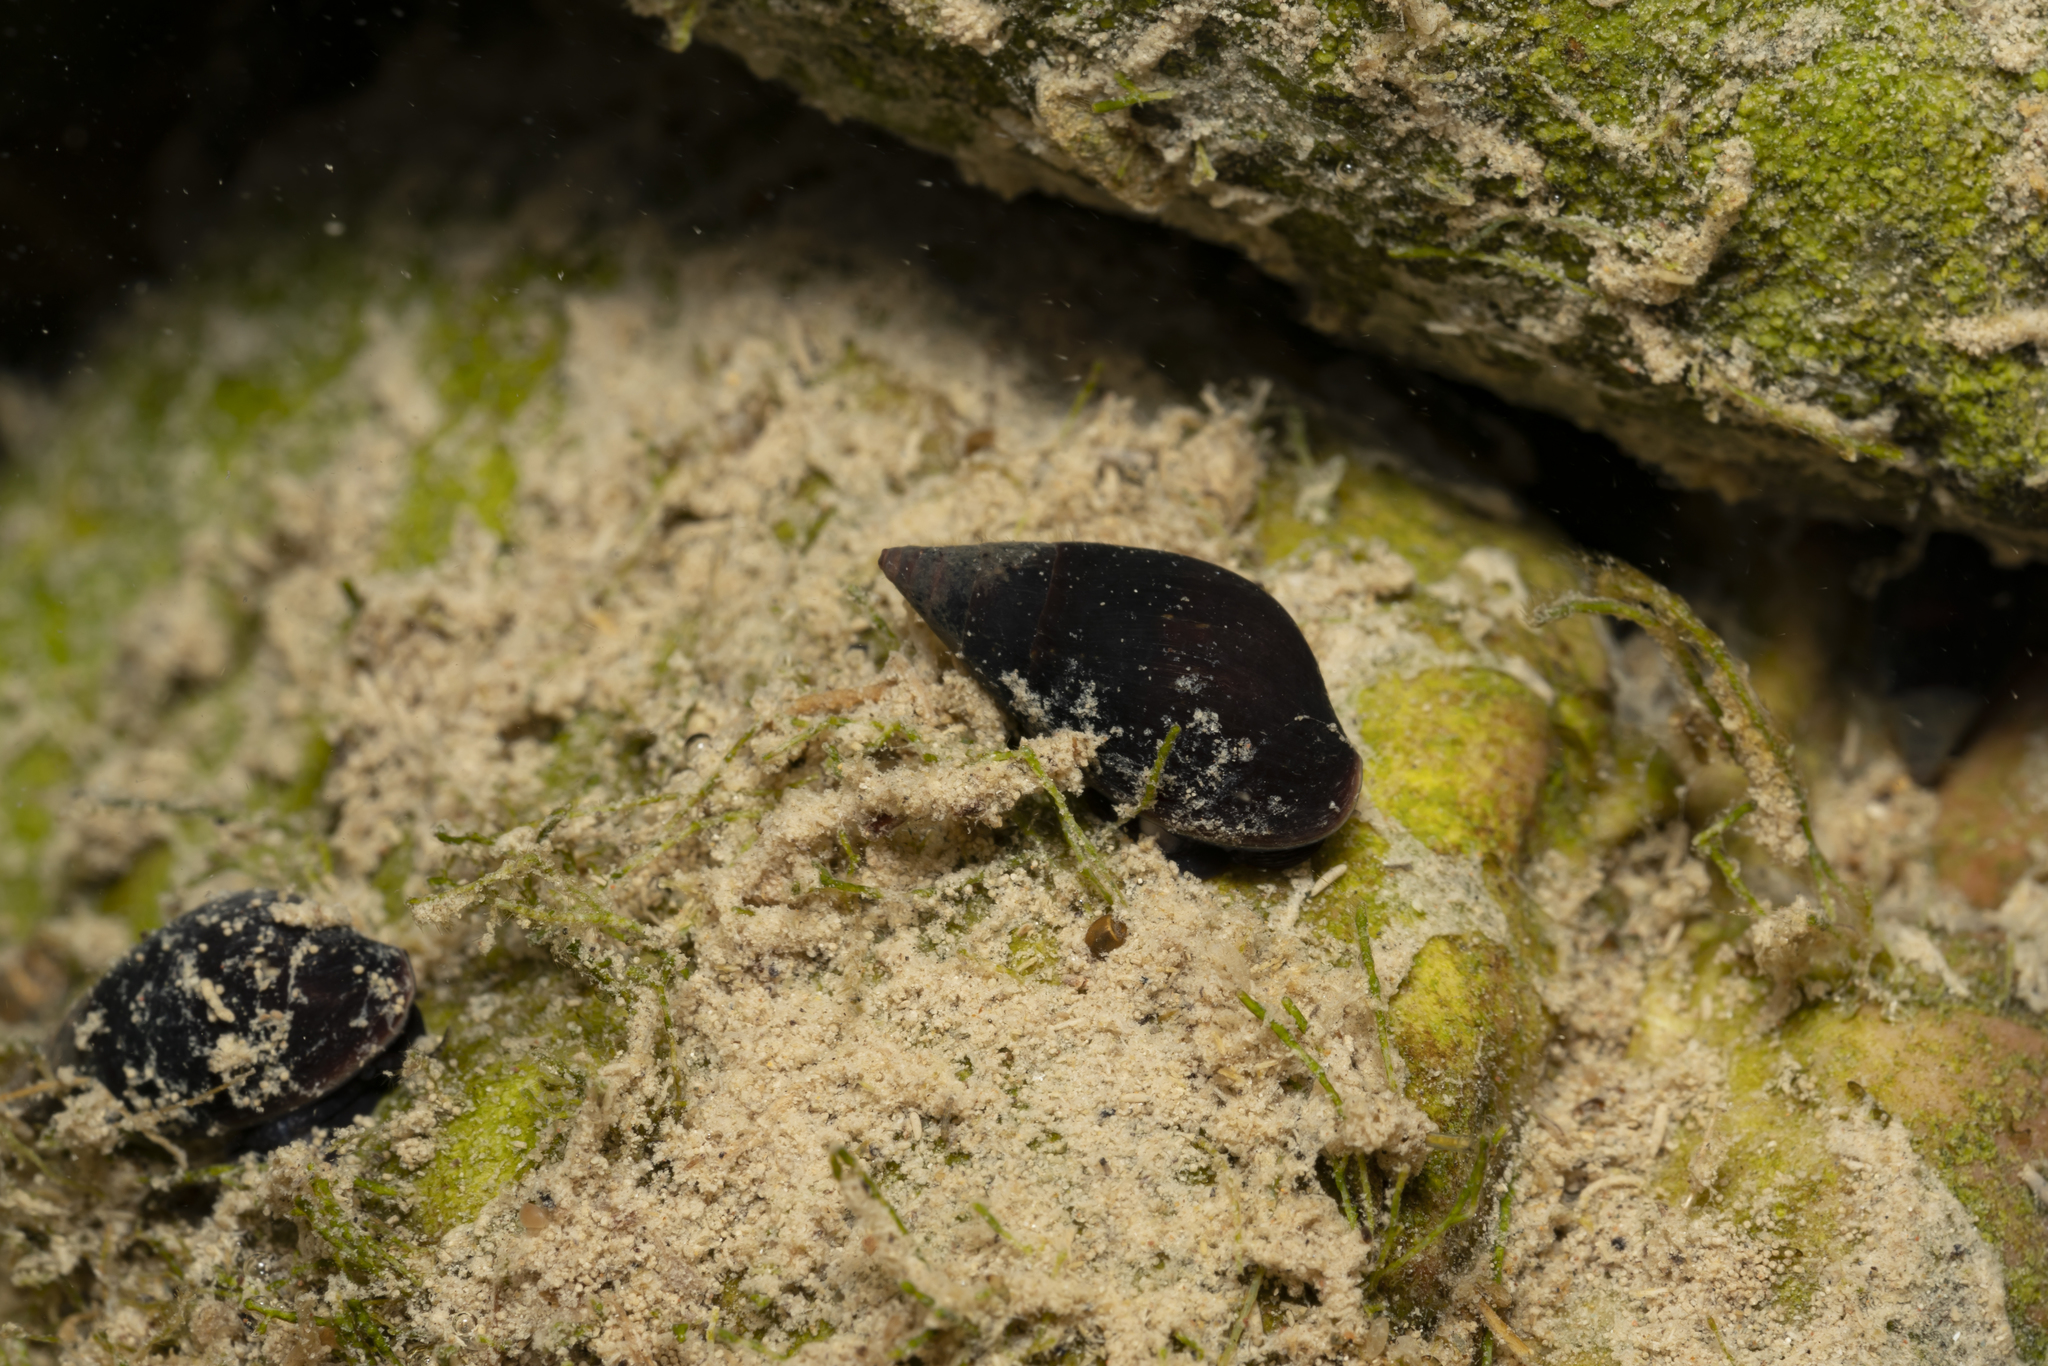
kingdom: Animalia
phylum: Mollusca
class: Gastropoda
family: Melanopsidae
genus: Melanopsis
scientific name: Melanopsis wagneri
